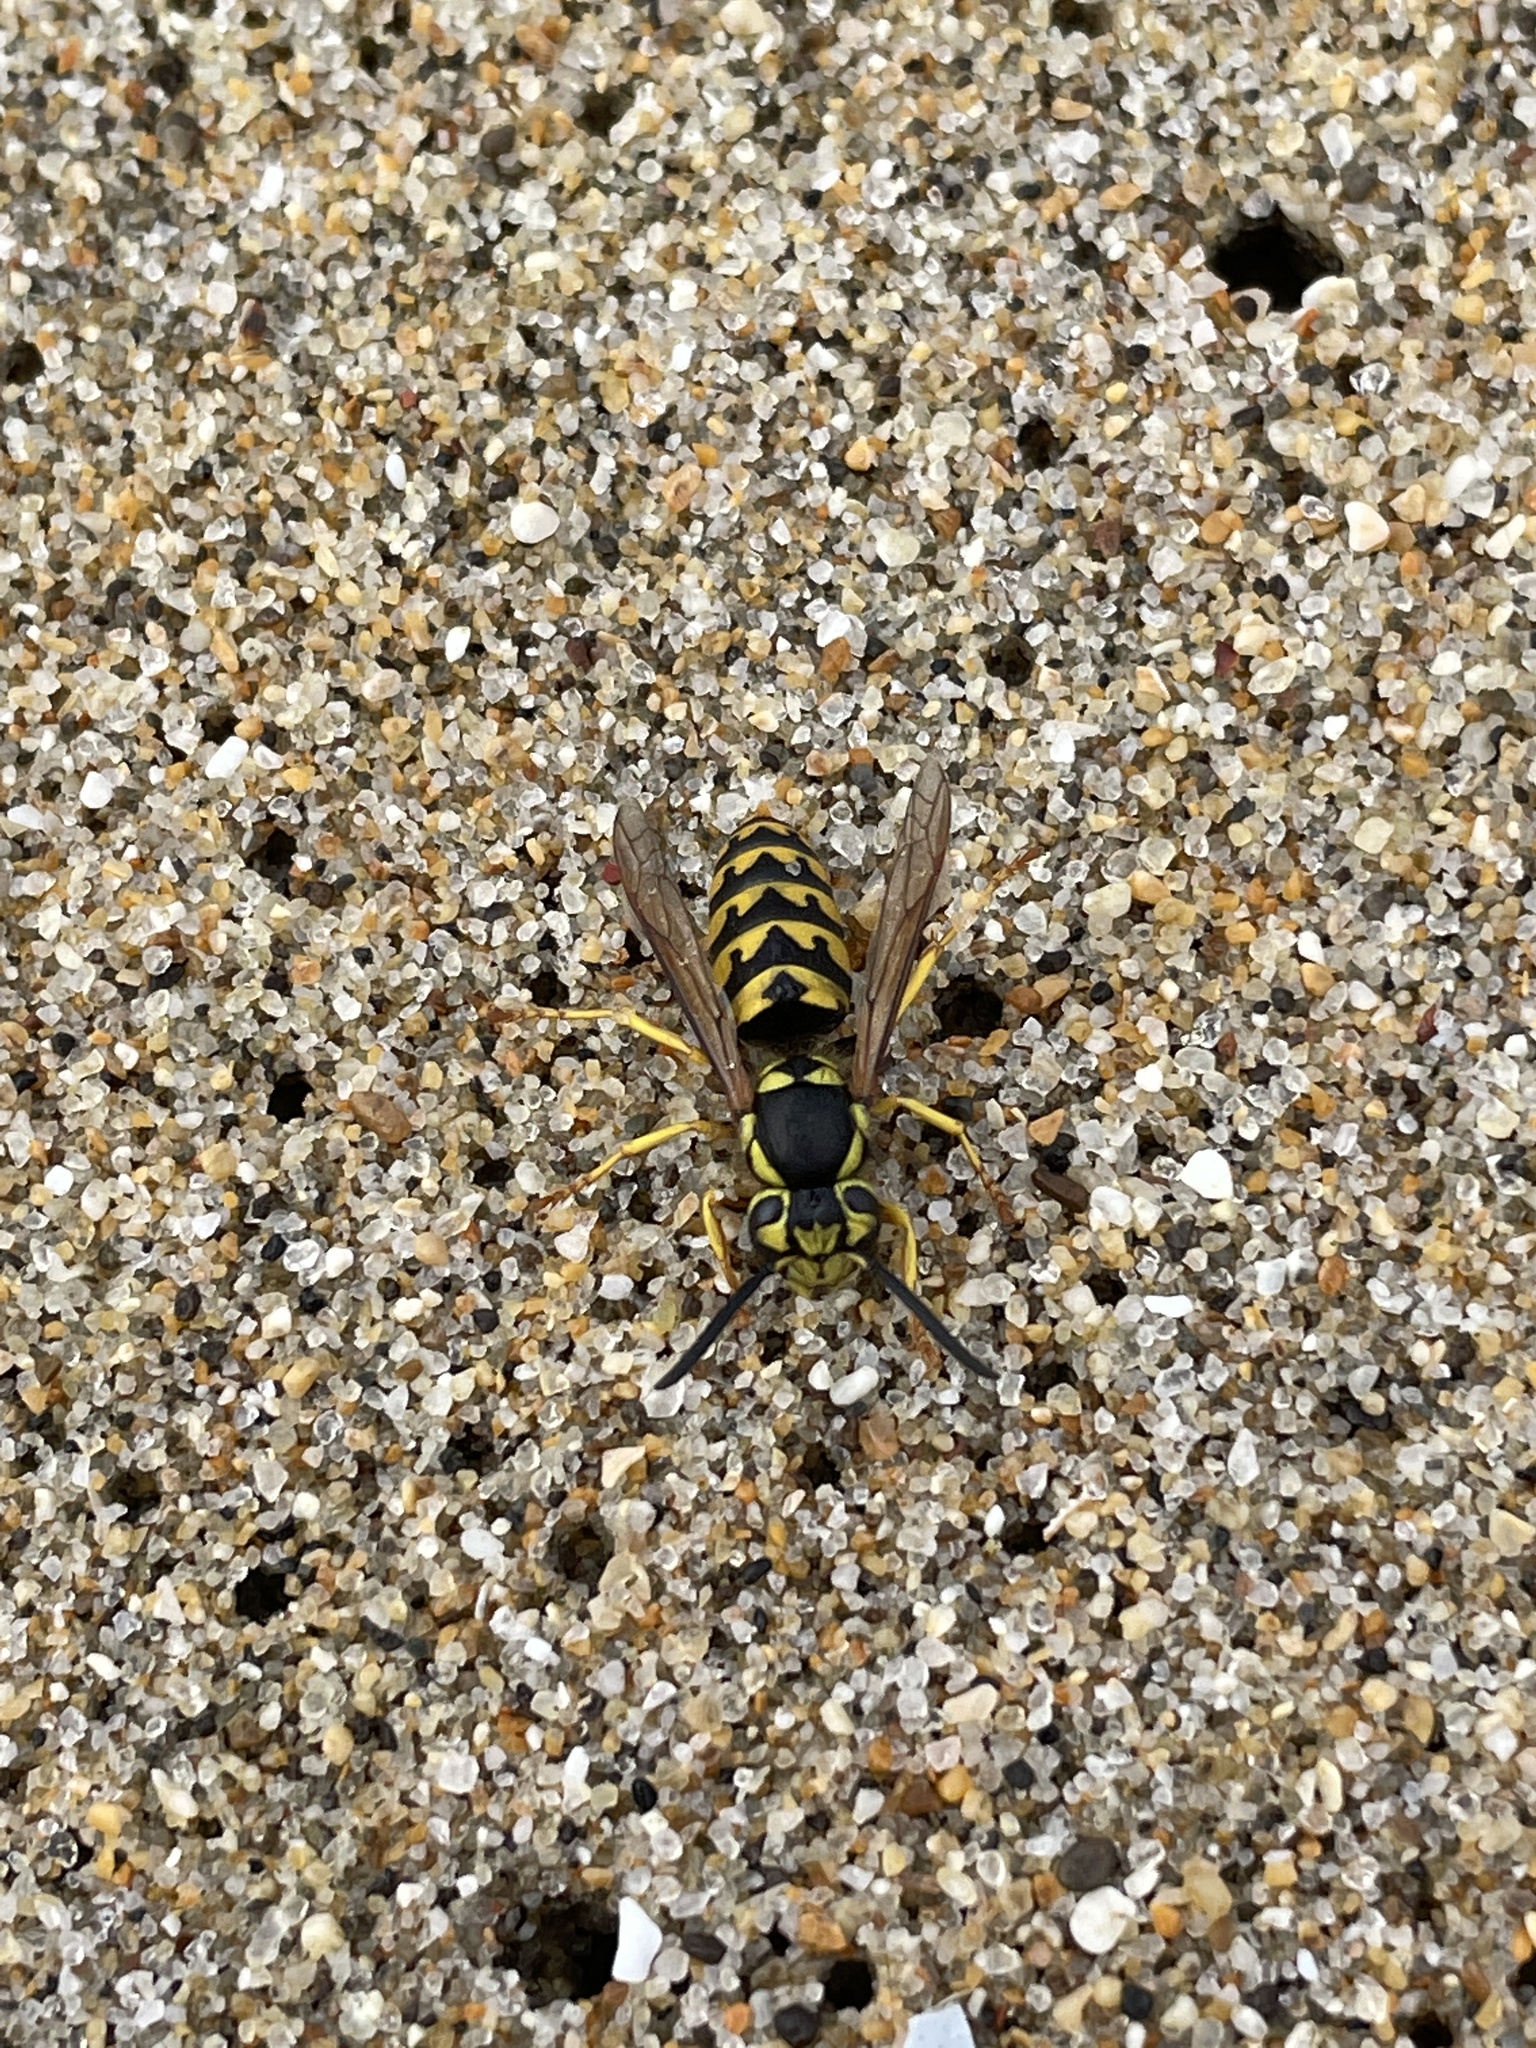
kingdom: Animalia
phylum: Arthropoda
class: Insecta
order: Hymenoptera
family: Vespidae
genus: Vespula
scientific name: Vespula pensylvanica
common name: Western yellowjacket
